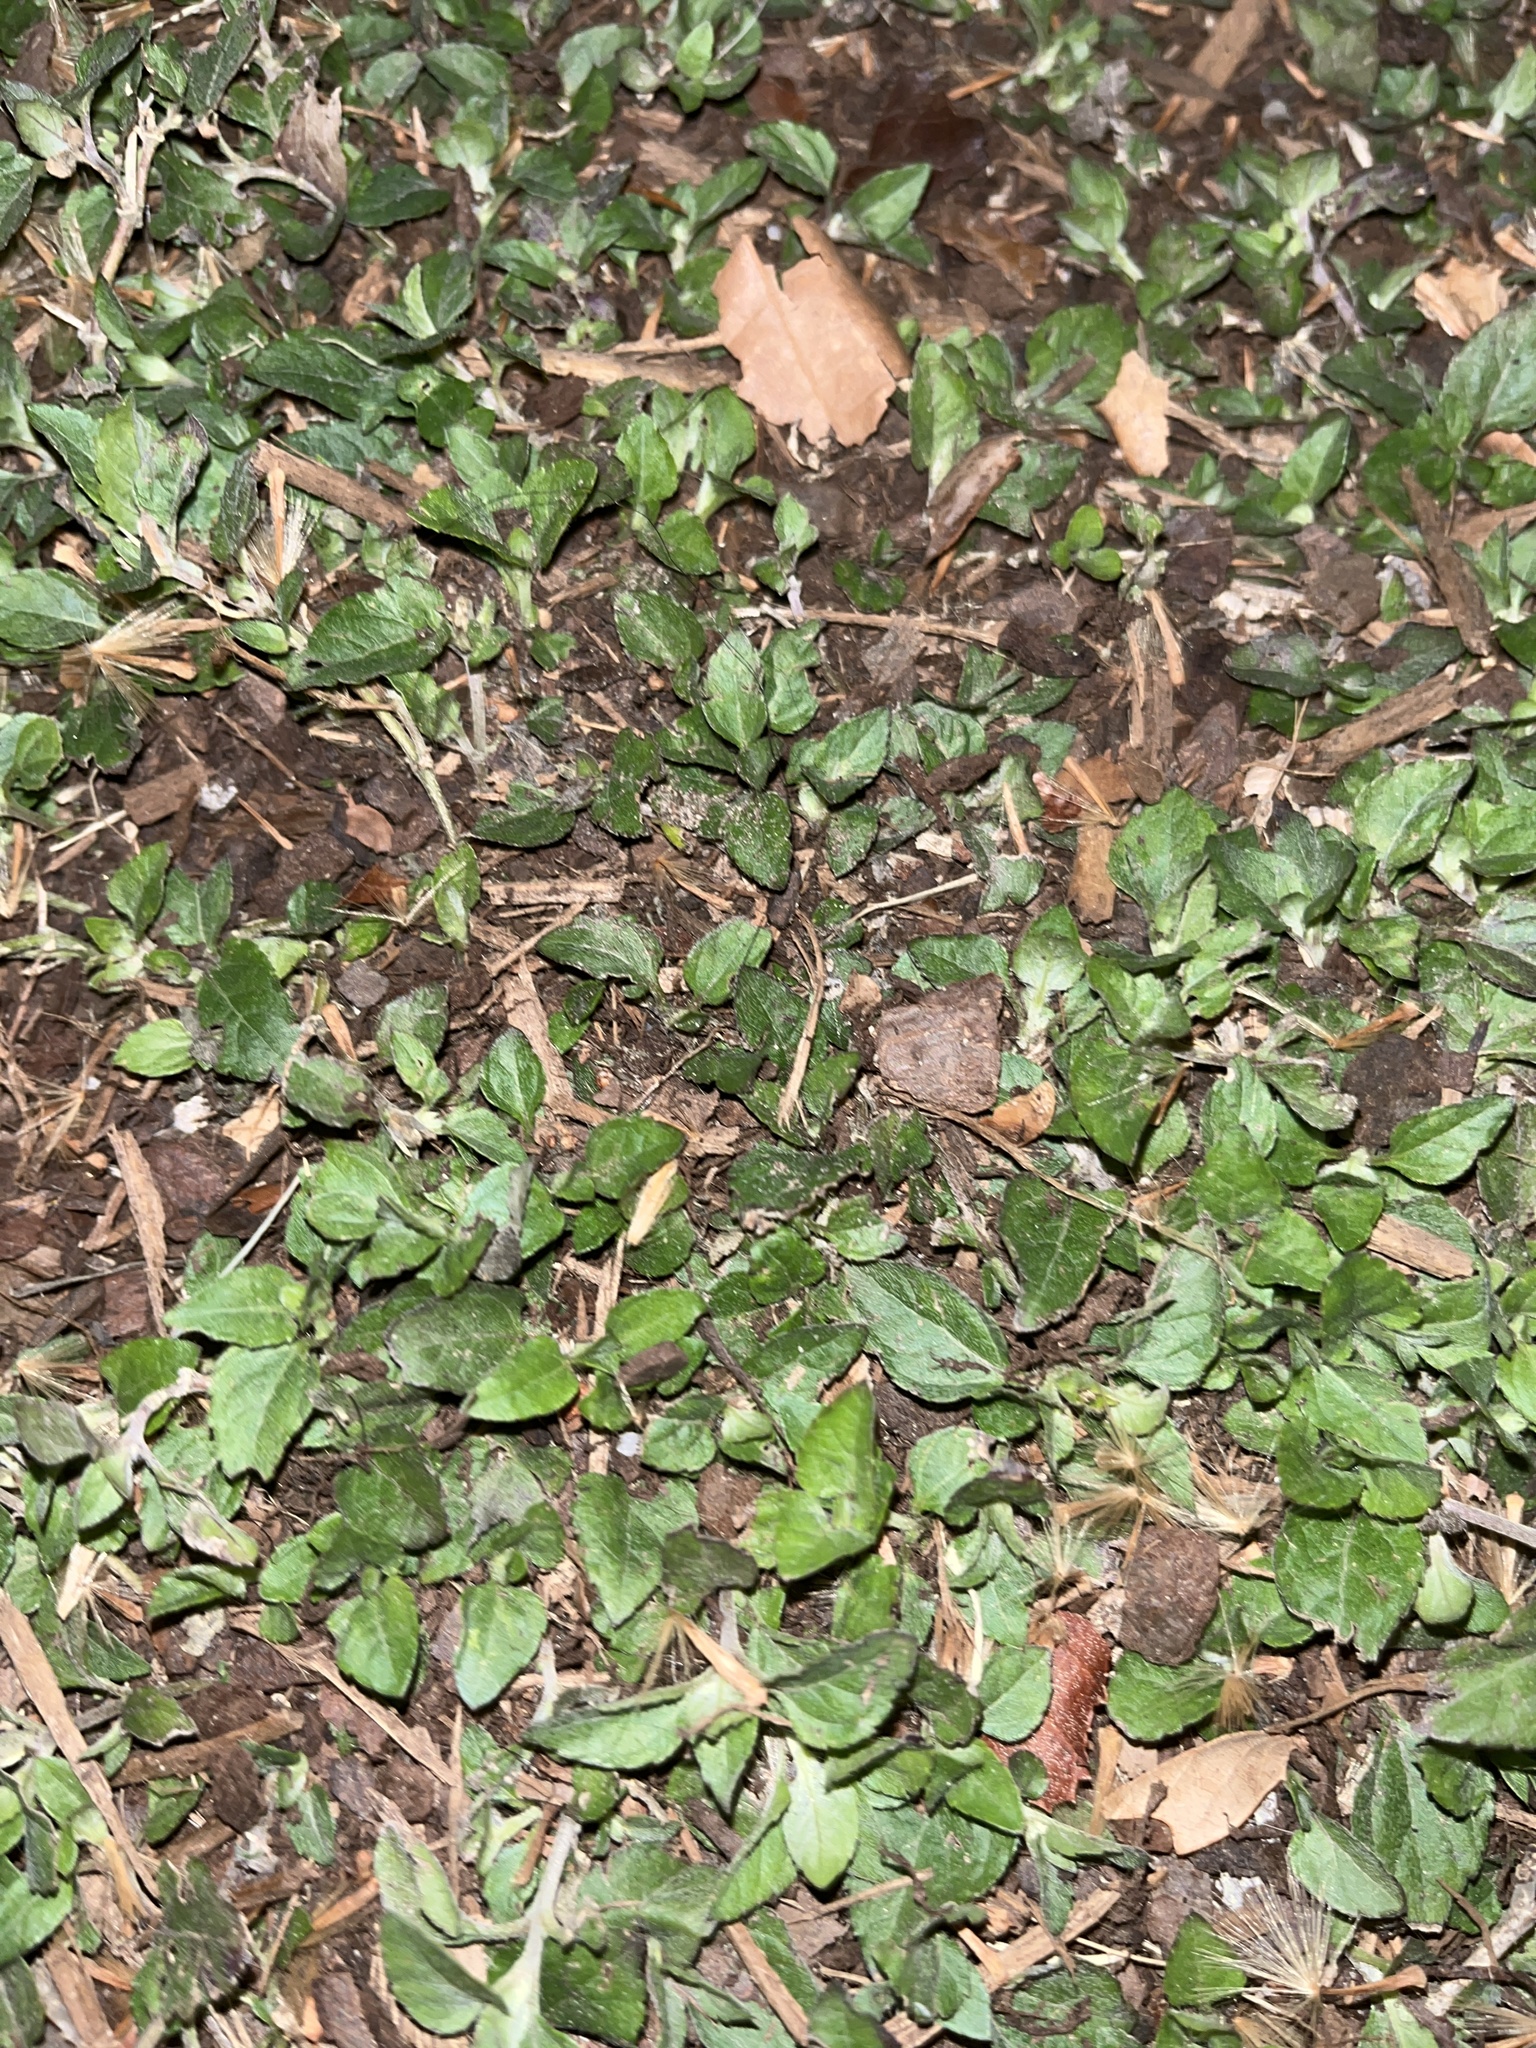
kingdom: Plantae
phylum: Tracheophyta
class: Magnoliopsida
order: Asterales
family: Asteraceae
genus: Calyptocarpus
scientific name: Calyptocarpus vialis
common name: Straggler daisy
